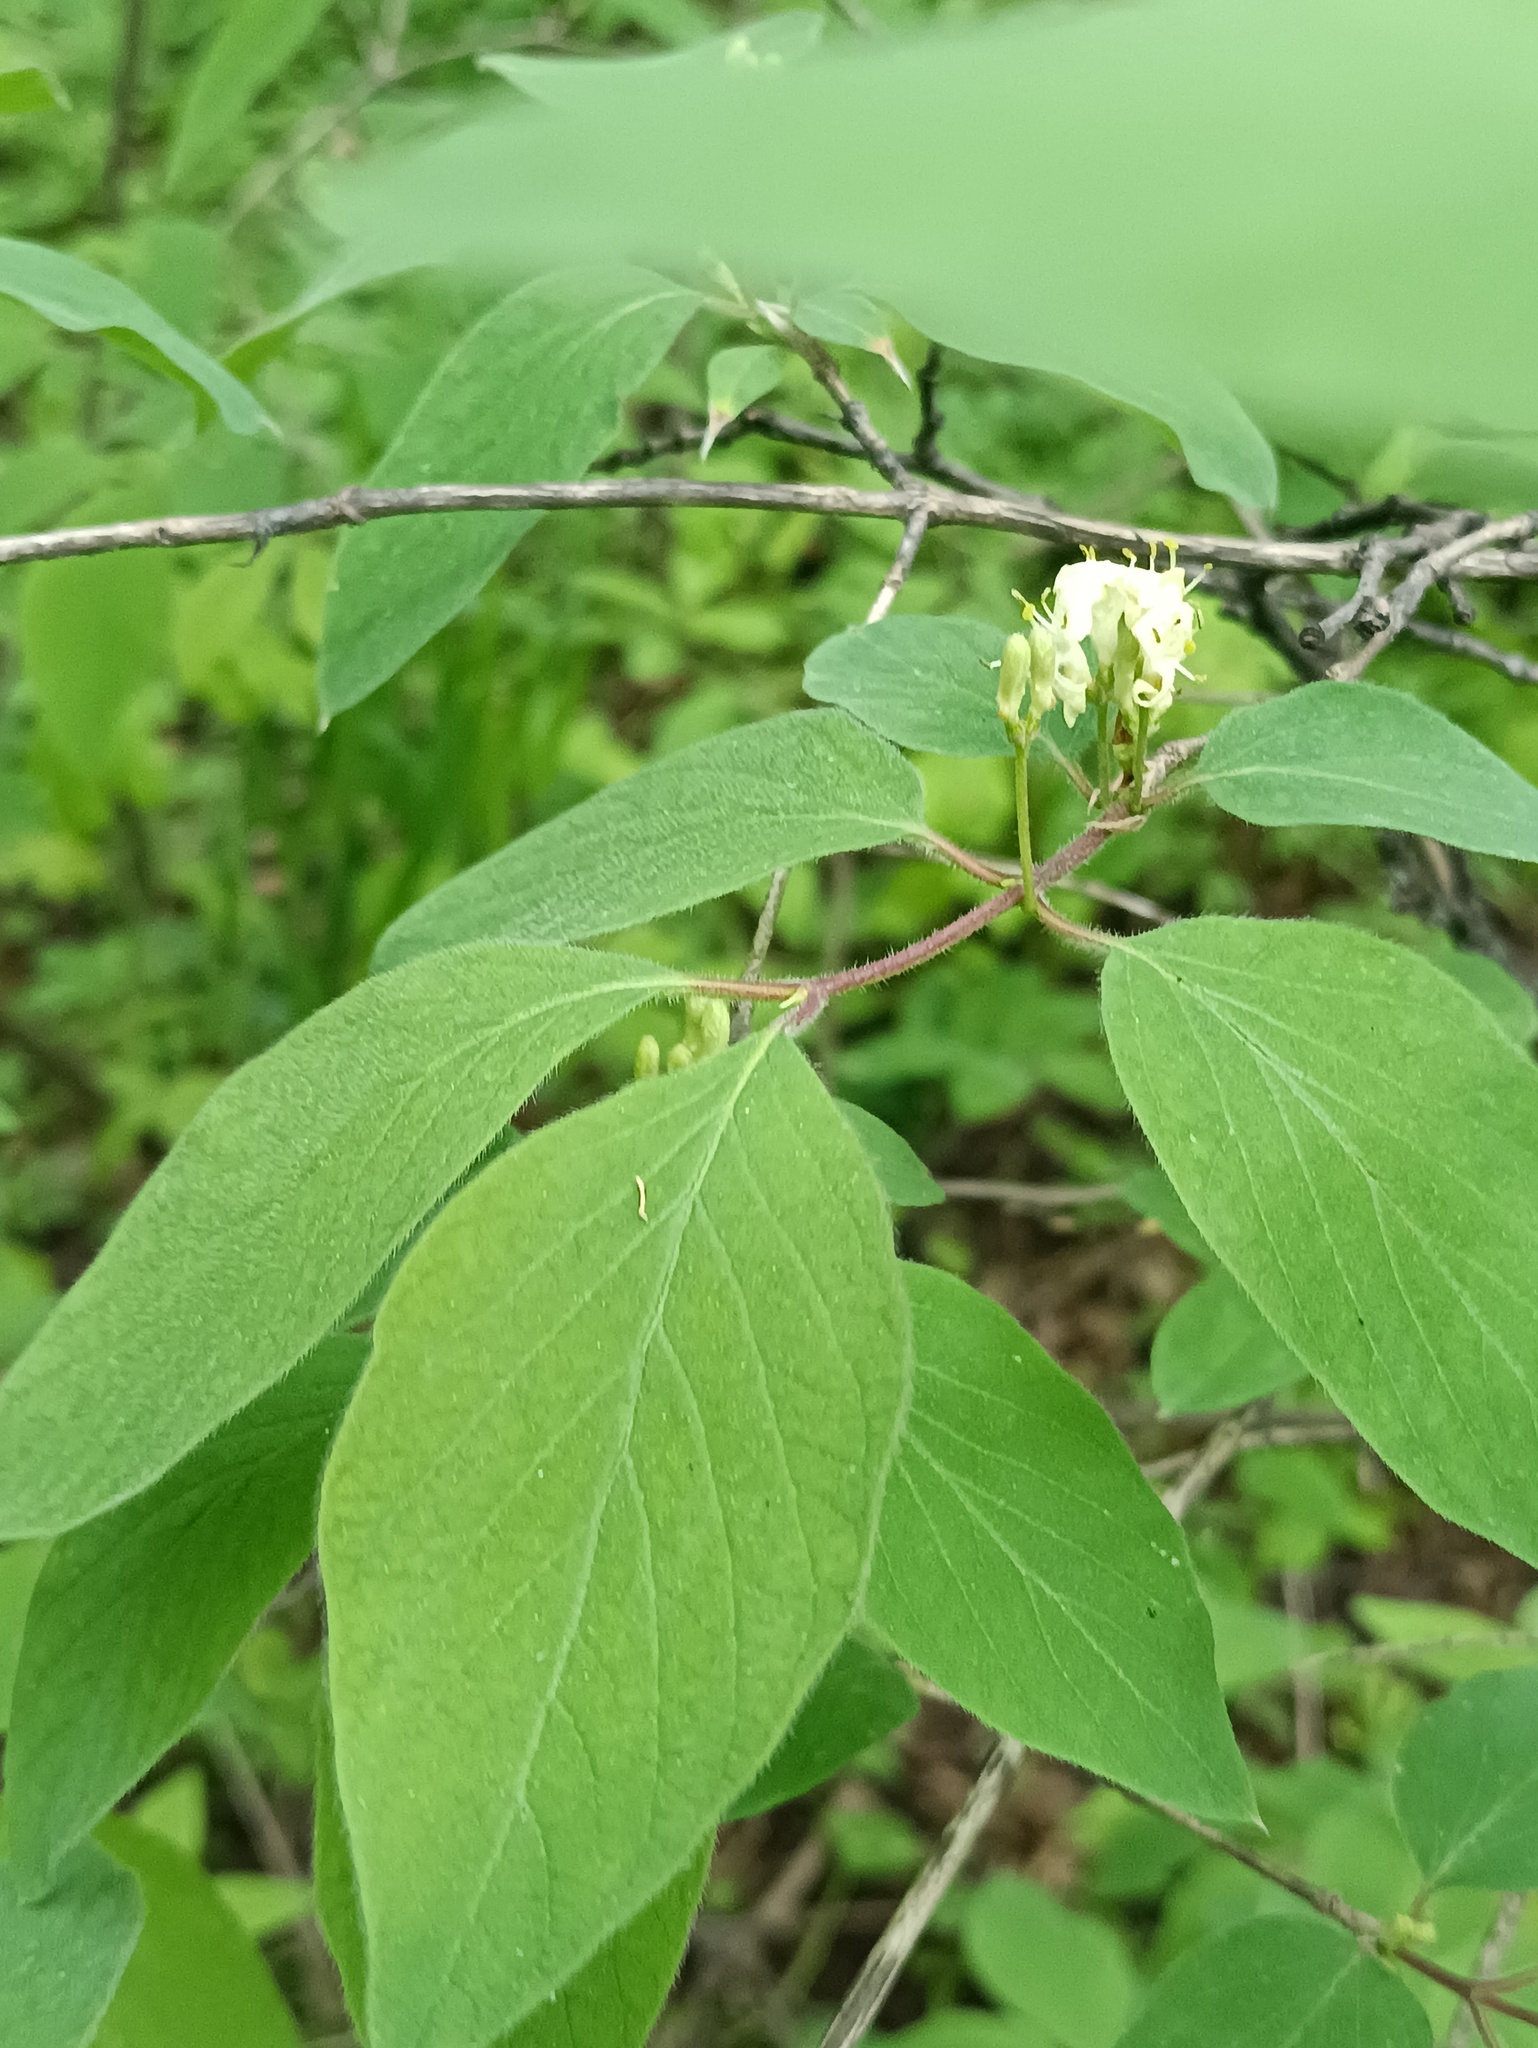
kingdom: Plantae
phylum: Tracheophyta
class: Magnoliopsida
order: Dipsacales
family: Caprifoliaceae
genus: Lonicera
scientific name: Lonicera xylosteum
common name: Fly honeysuckle
